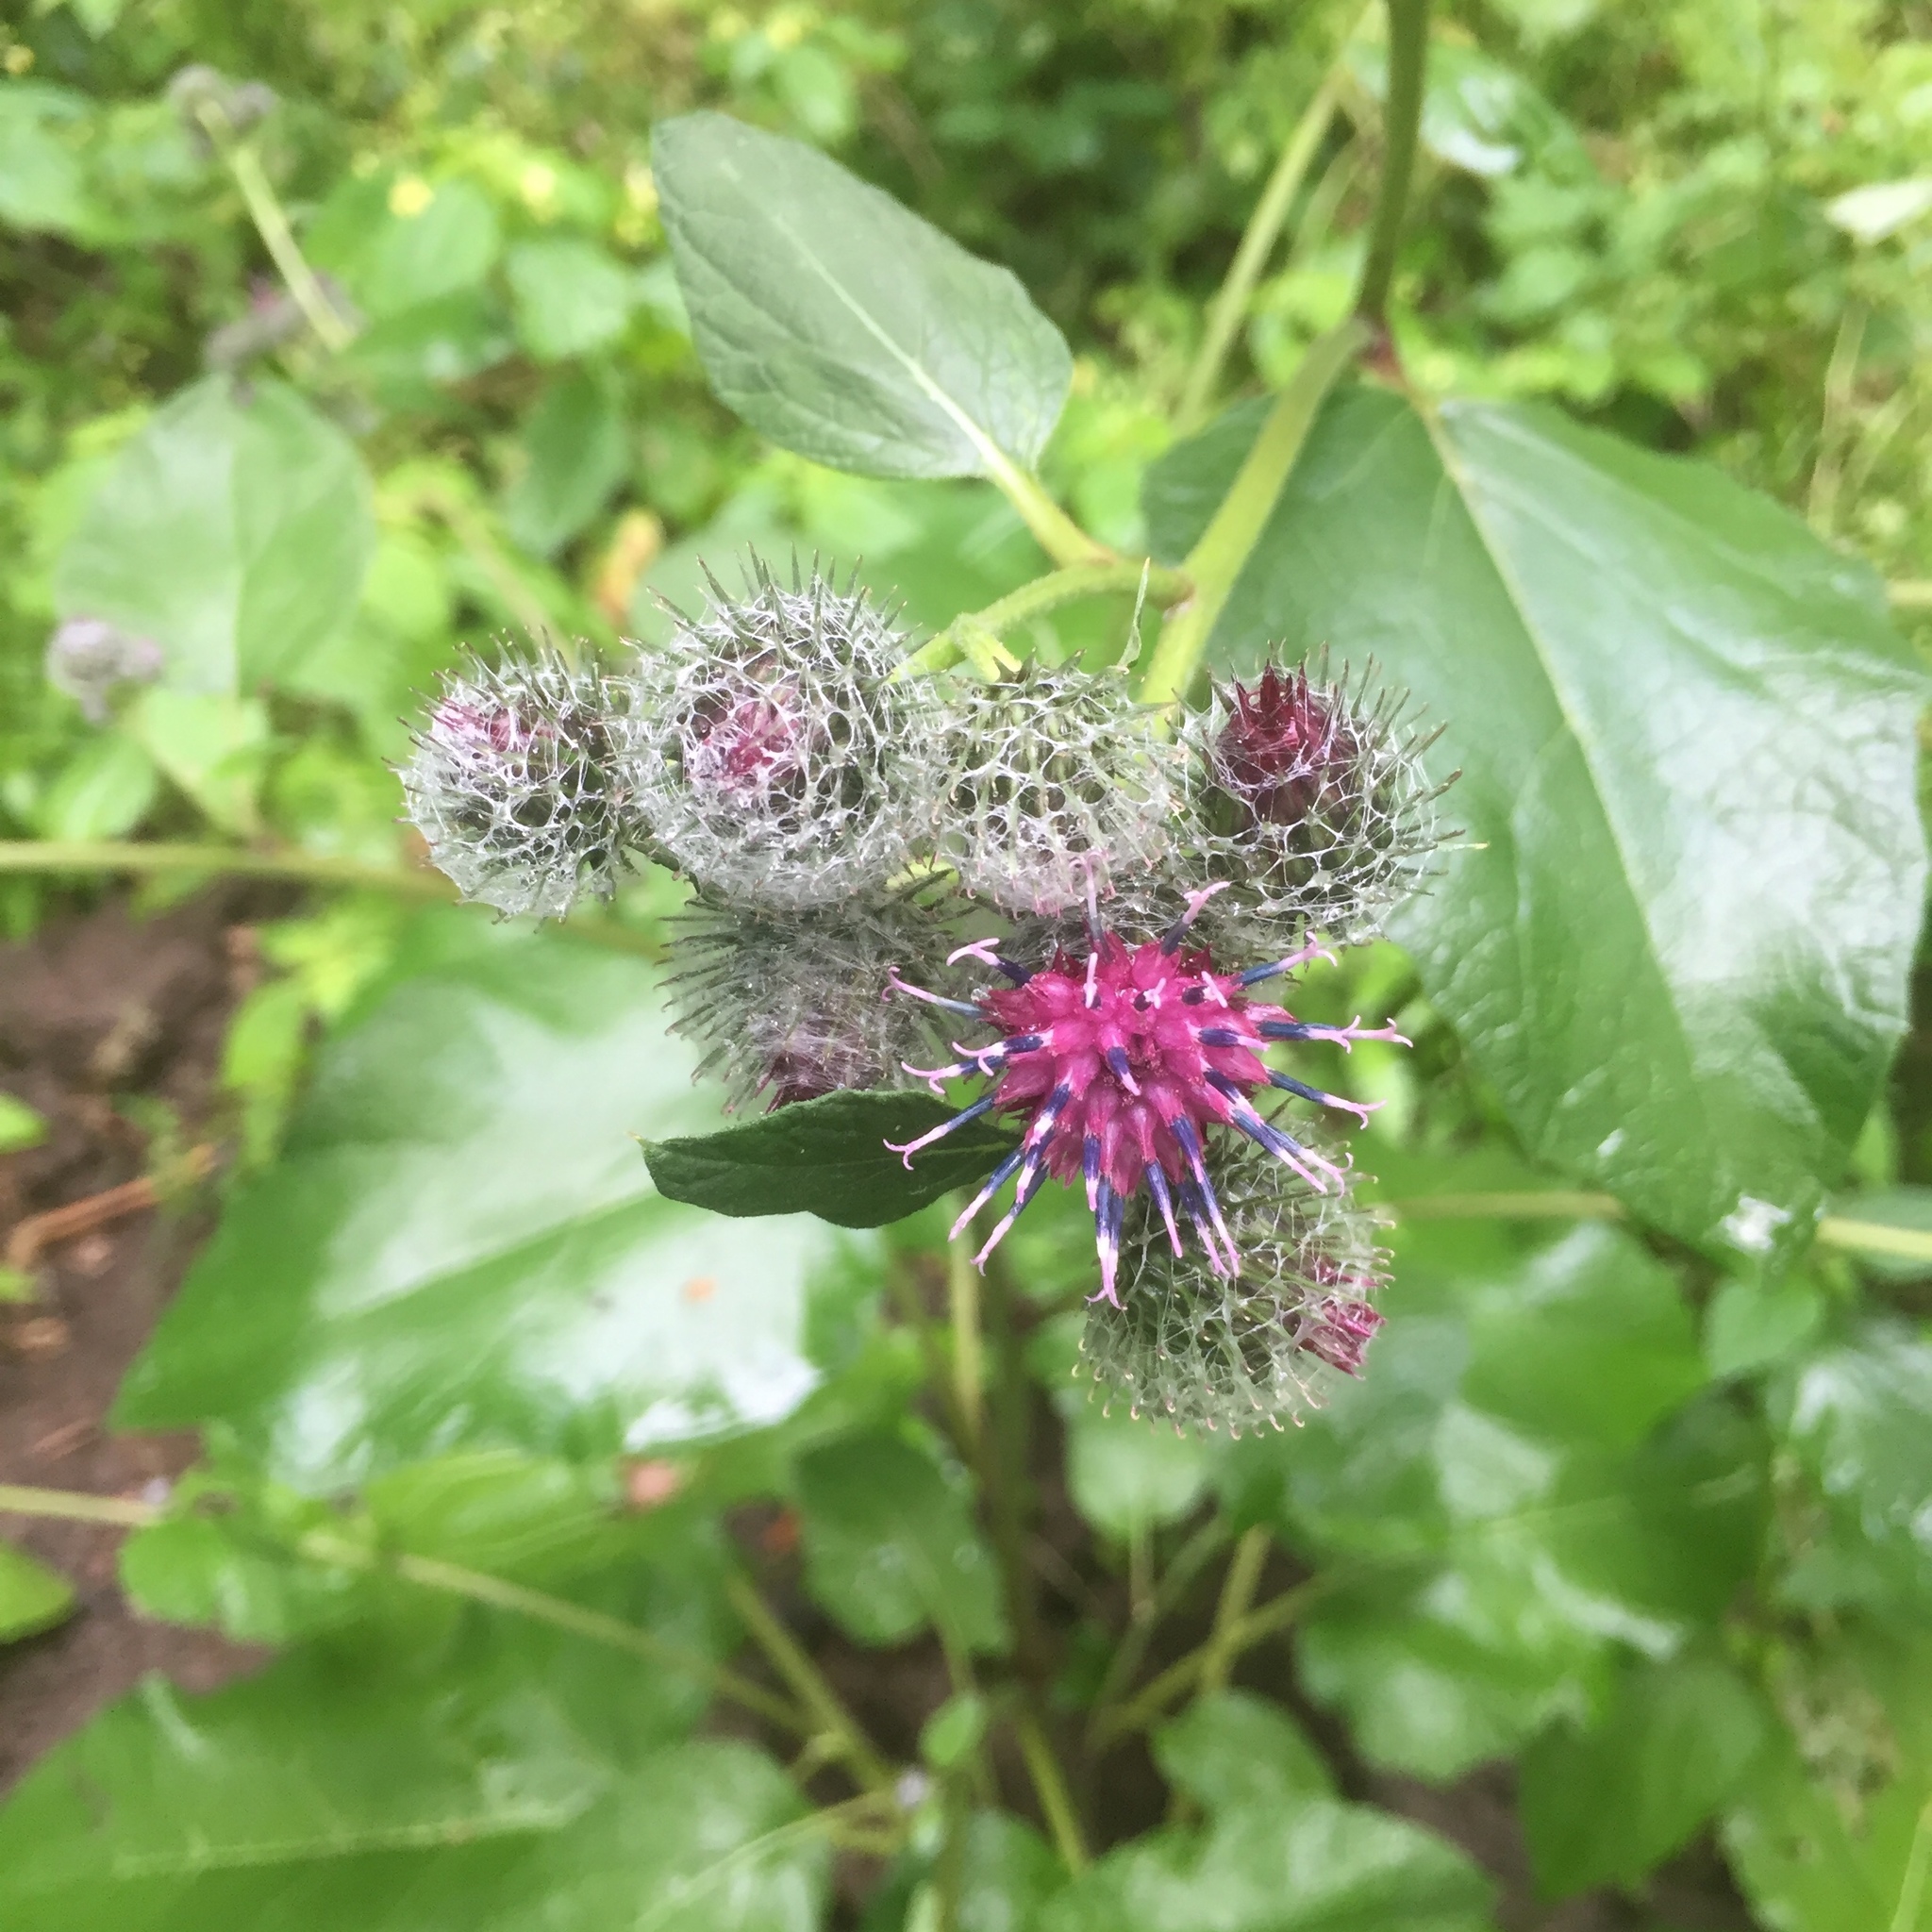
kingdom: Plantae
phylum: Tracheophyta
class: Magnoliopsida
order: Asterales
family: Asteraceae
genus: Arctium
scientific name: Arctium tomentosum
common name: Woolly burdock
